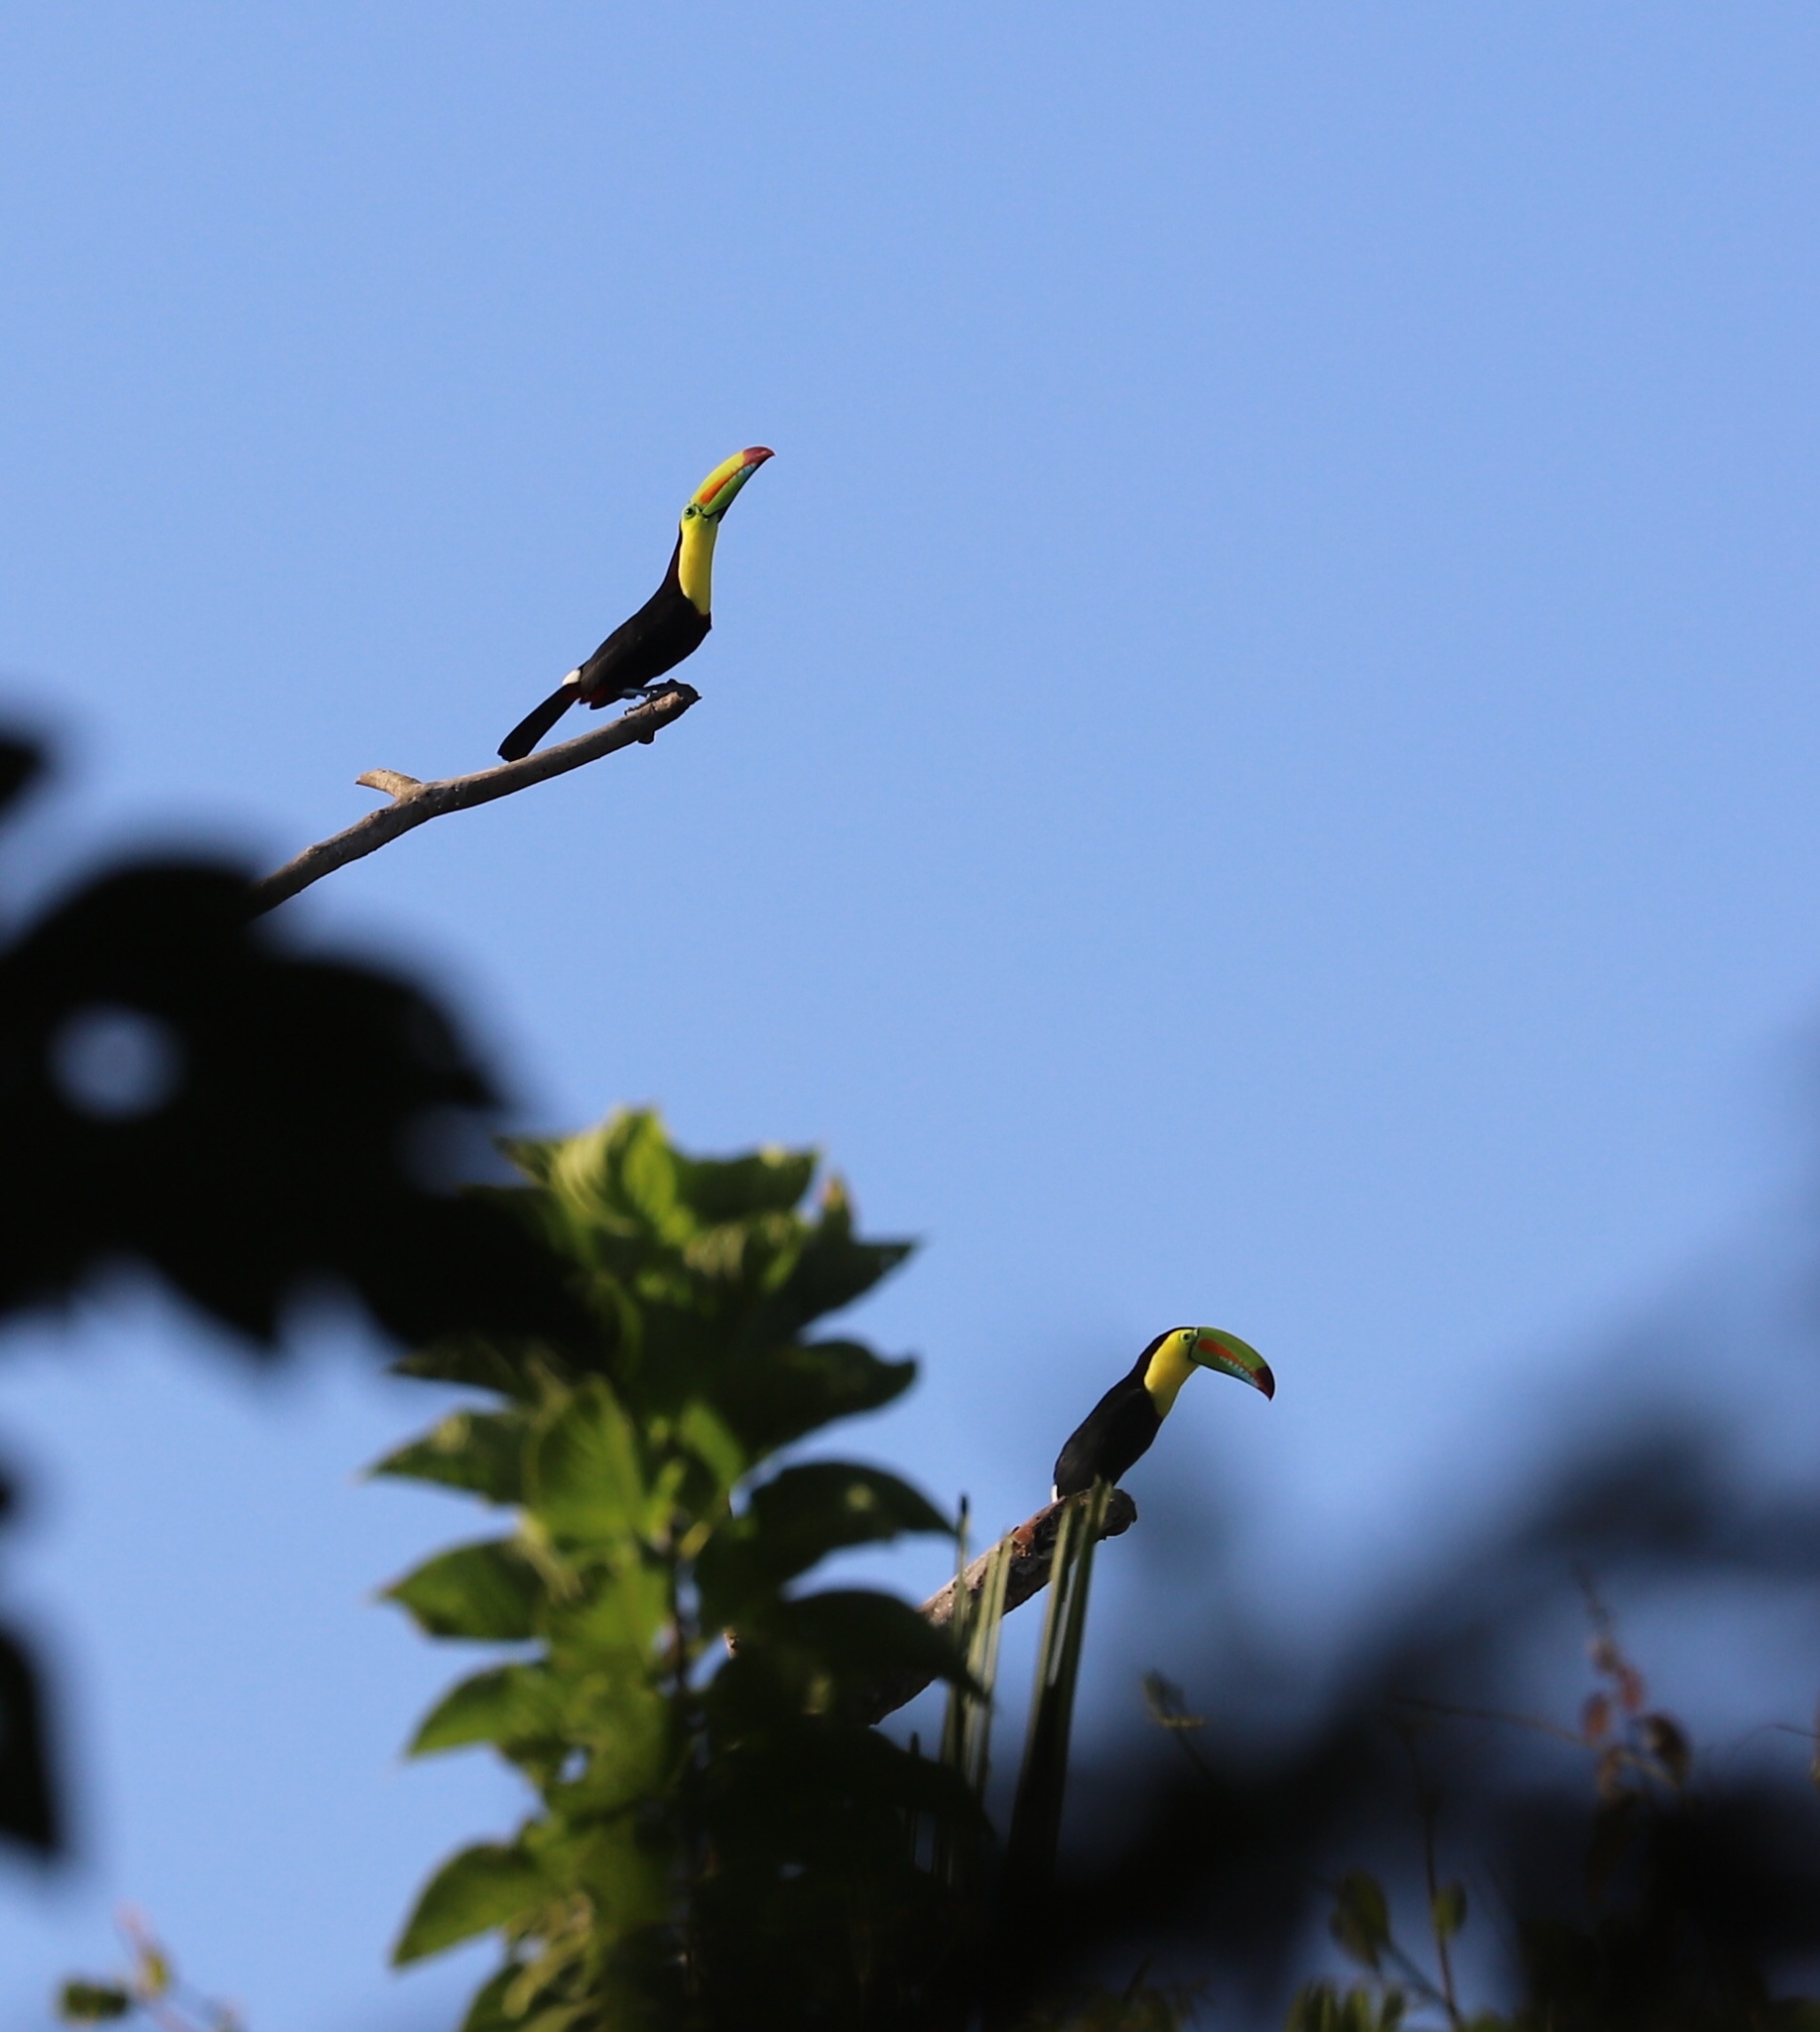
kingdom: Animalia
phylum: Chordata
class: Aves
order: Piciformes
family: Ramphastidae
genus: Ramphastos
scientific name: Ramphastos sulfuratus
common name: Keel-billed toucan
